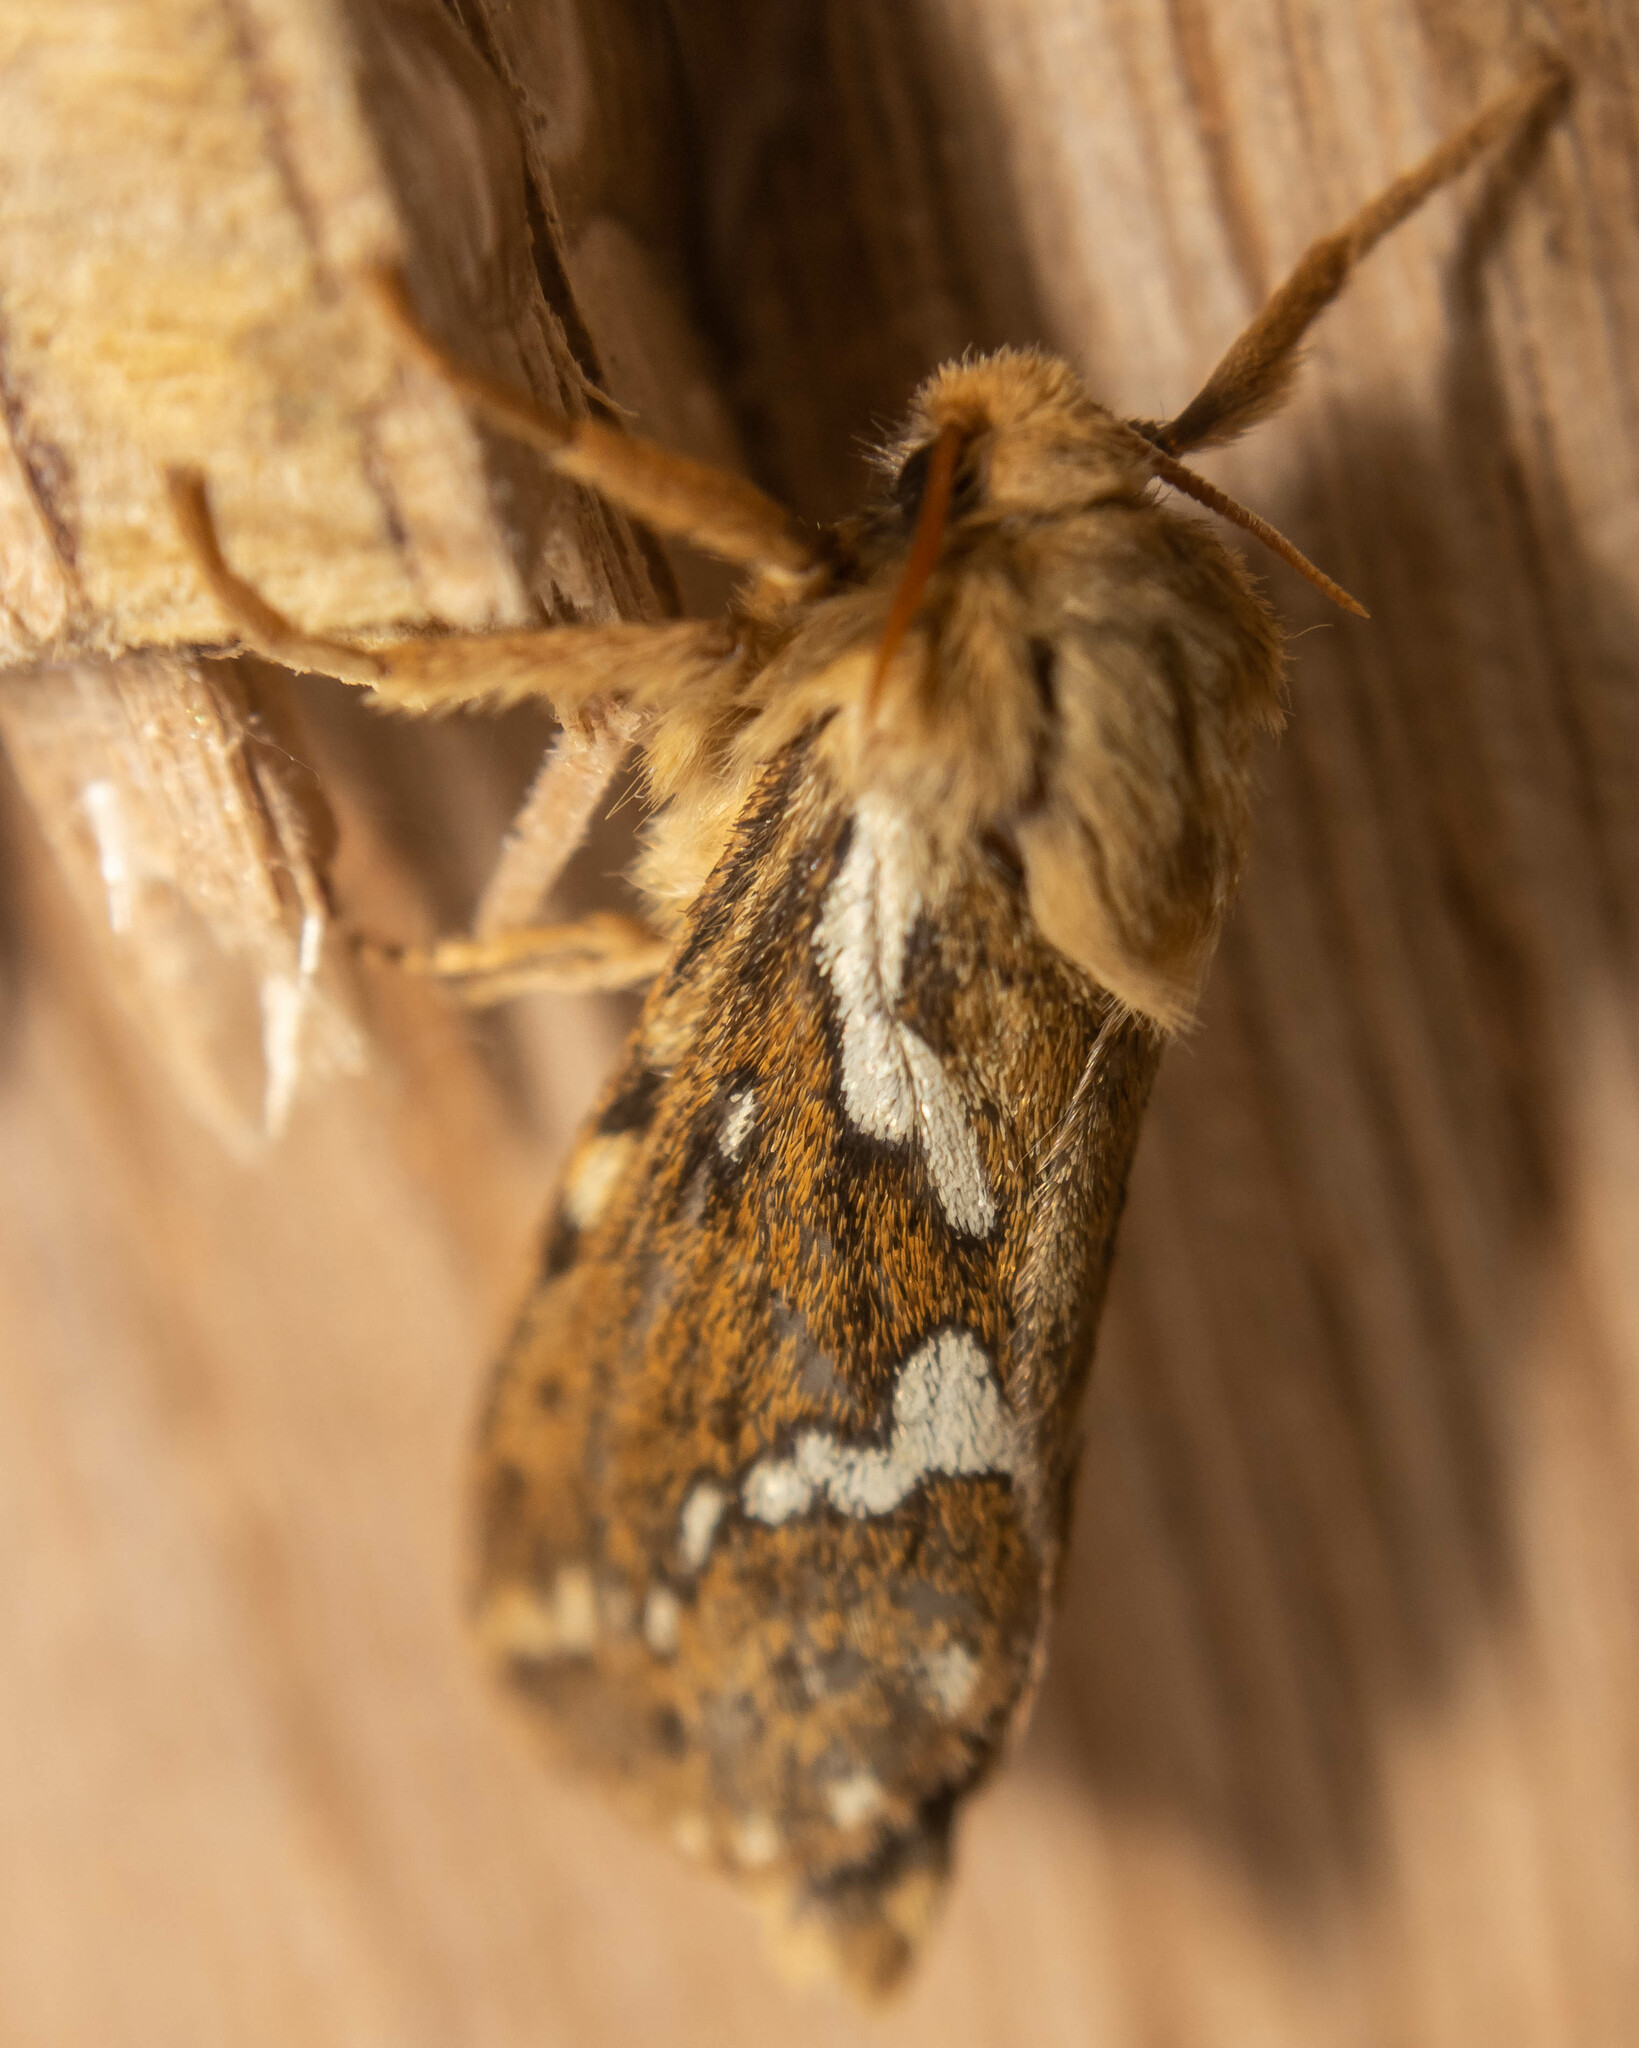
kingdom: Animalia
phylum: Arthropoda
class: Insecta
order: Lepidoptera
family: Hepialidae
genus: Korscheltellus
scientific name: Korscheltellus lupulina
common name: Common swift
